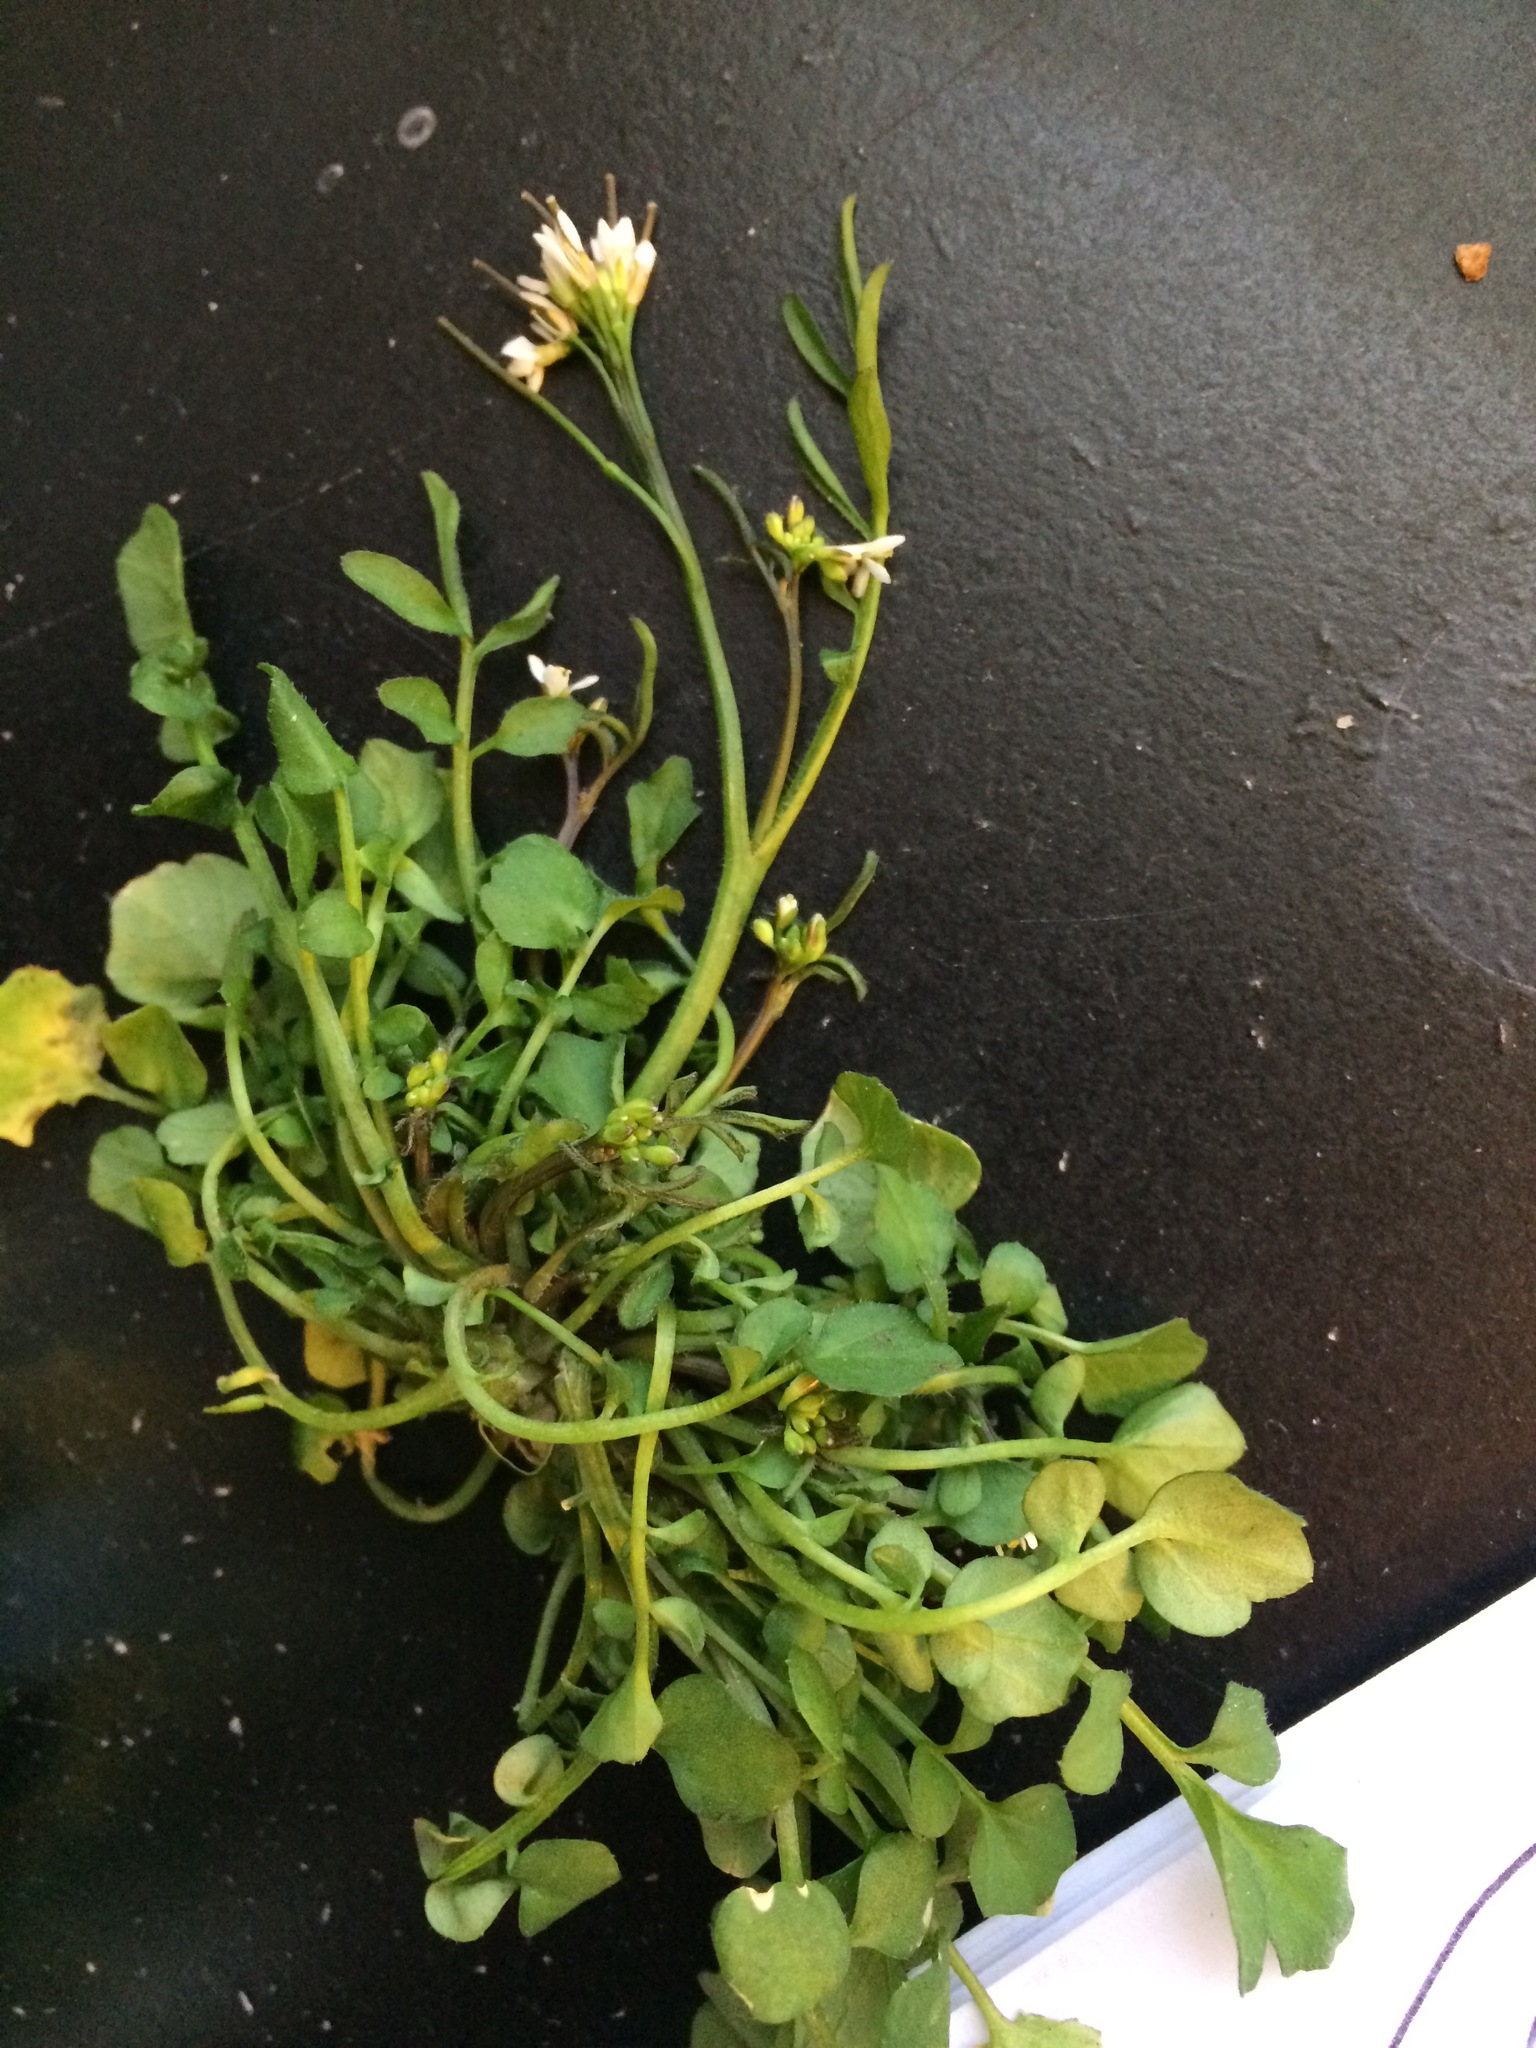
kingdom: Plantae
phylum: Tracheophyta
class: Magnoliopsida
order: Brassicales
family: Brassicaceae
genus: Cardamine
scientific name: Cardamine hirsuta
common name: Hairy bittercress
